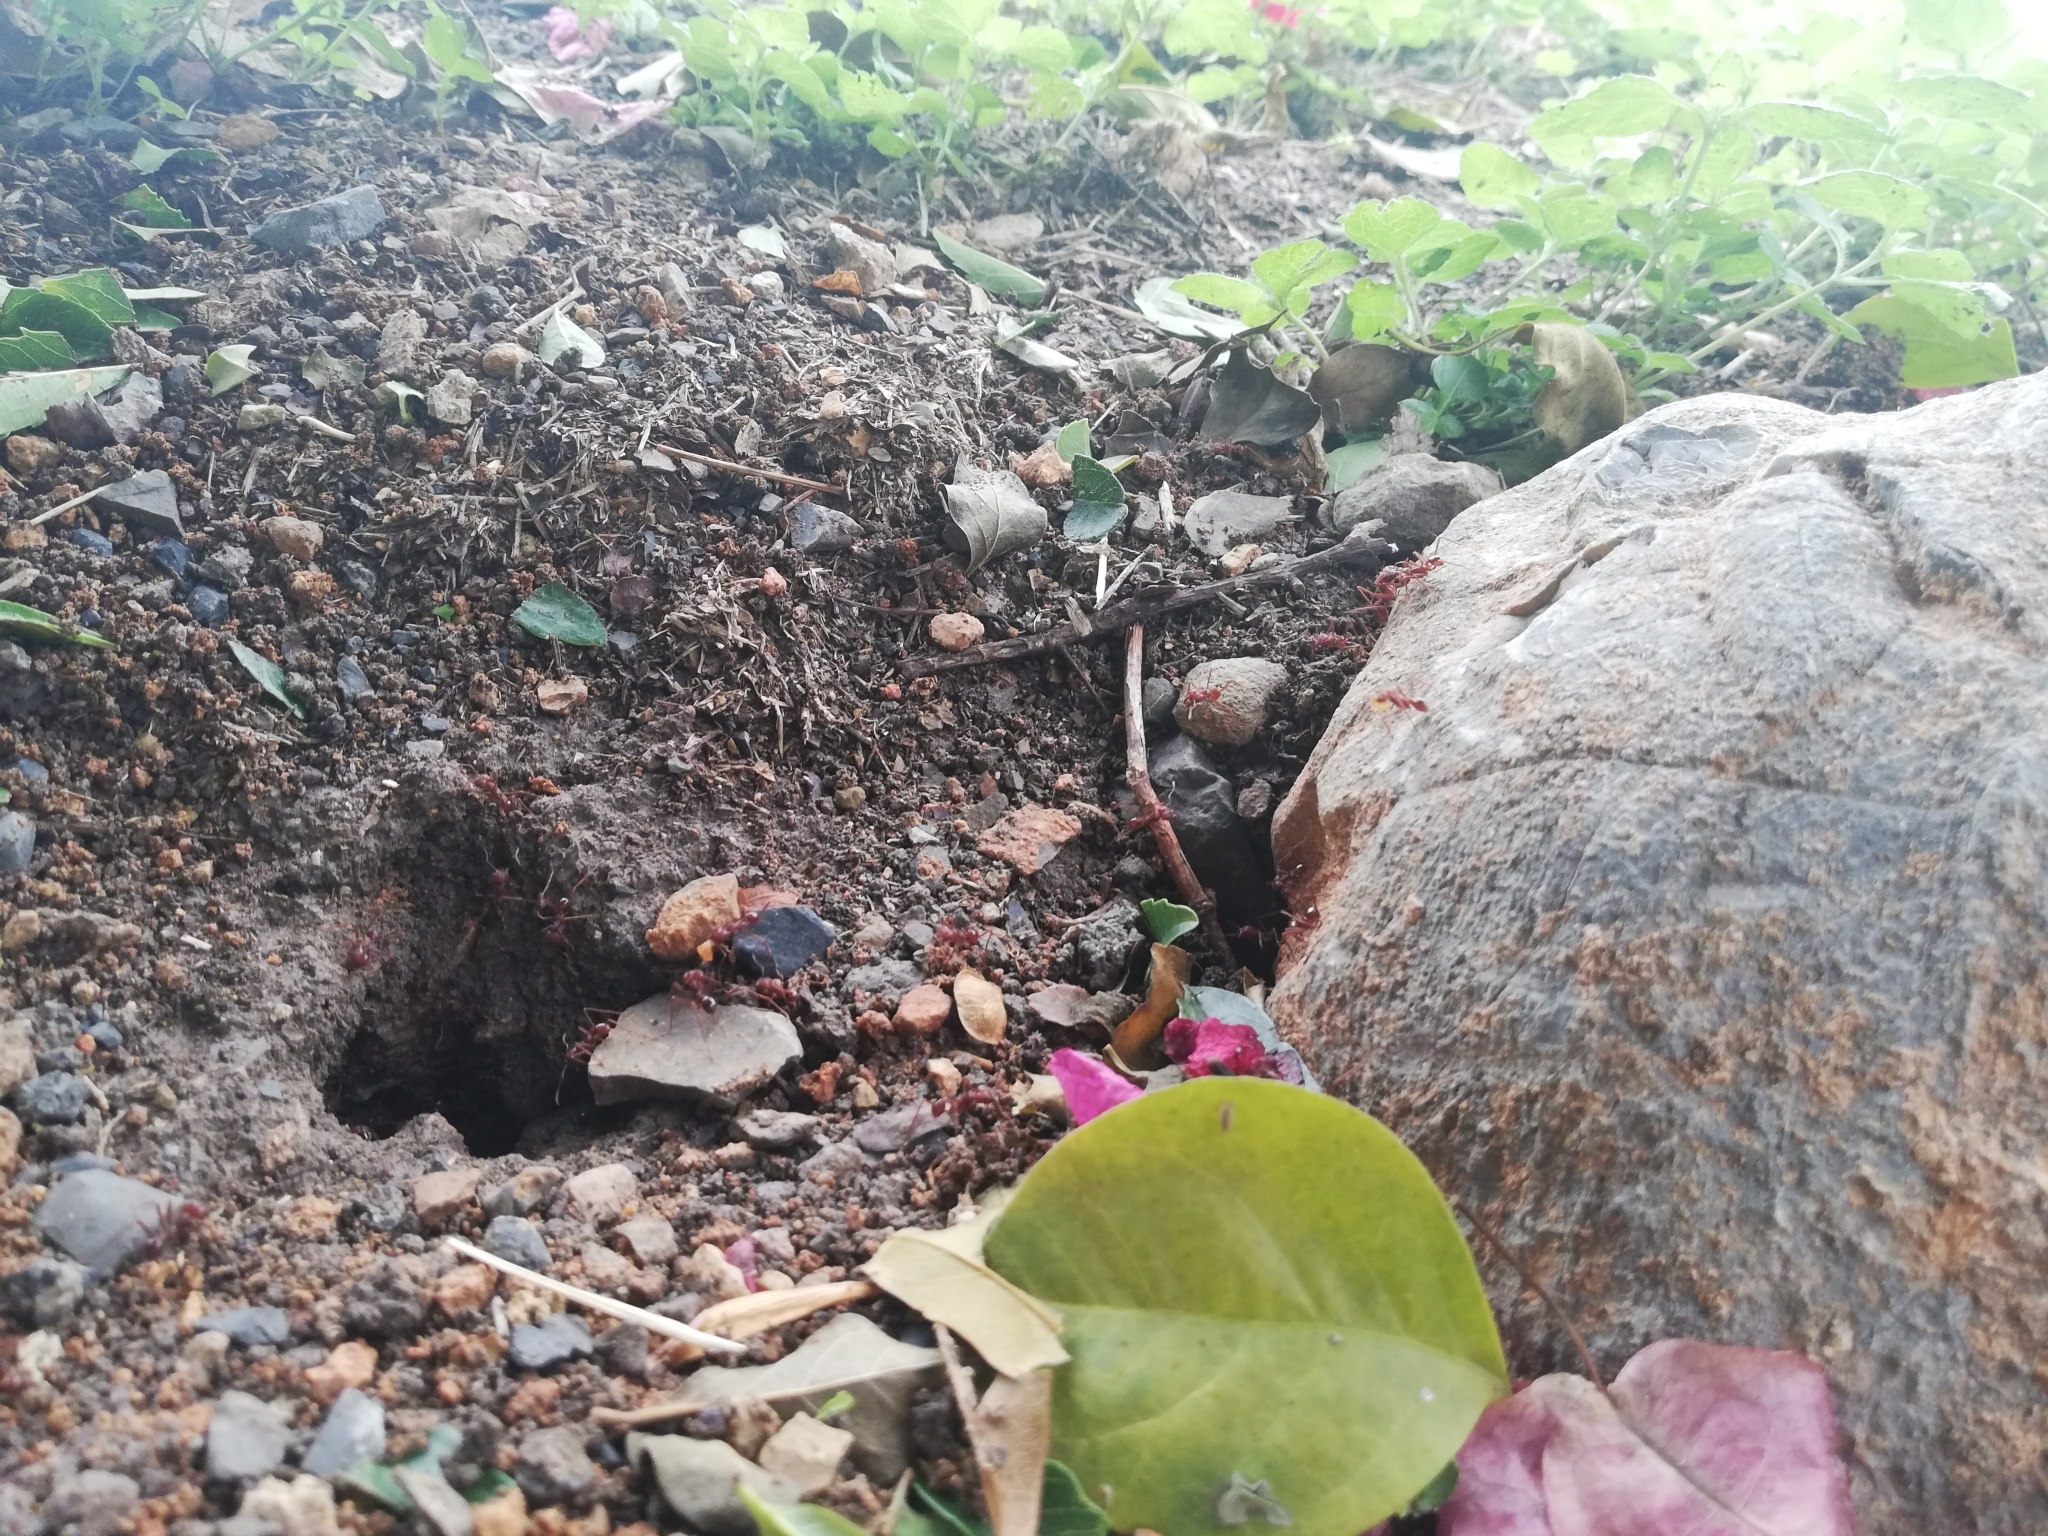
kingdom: Animalia
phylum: Arthropoda
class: Insecta
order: Hymenoptera
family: Formicidae
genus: Atta
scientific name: Atta mexicana
